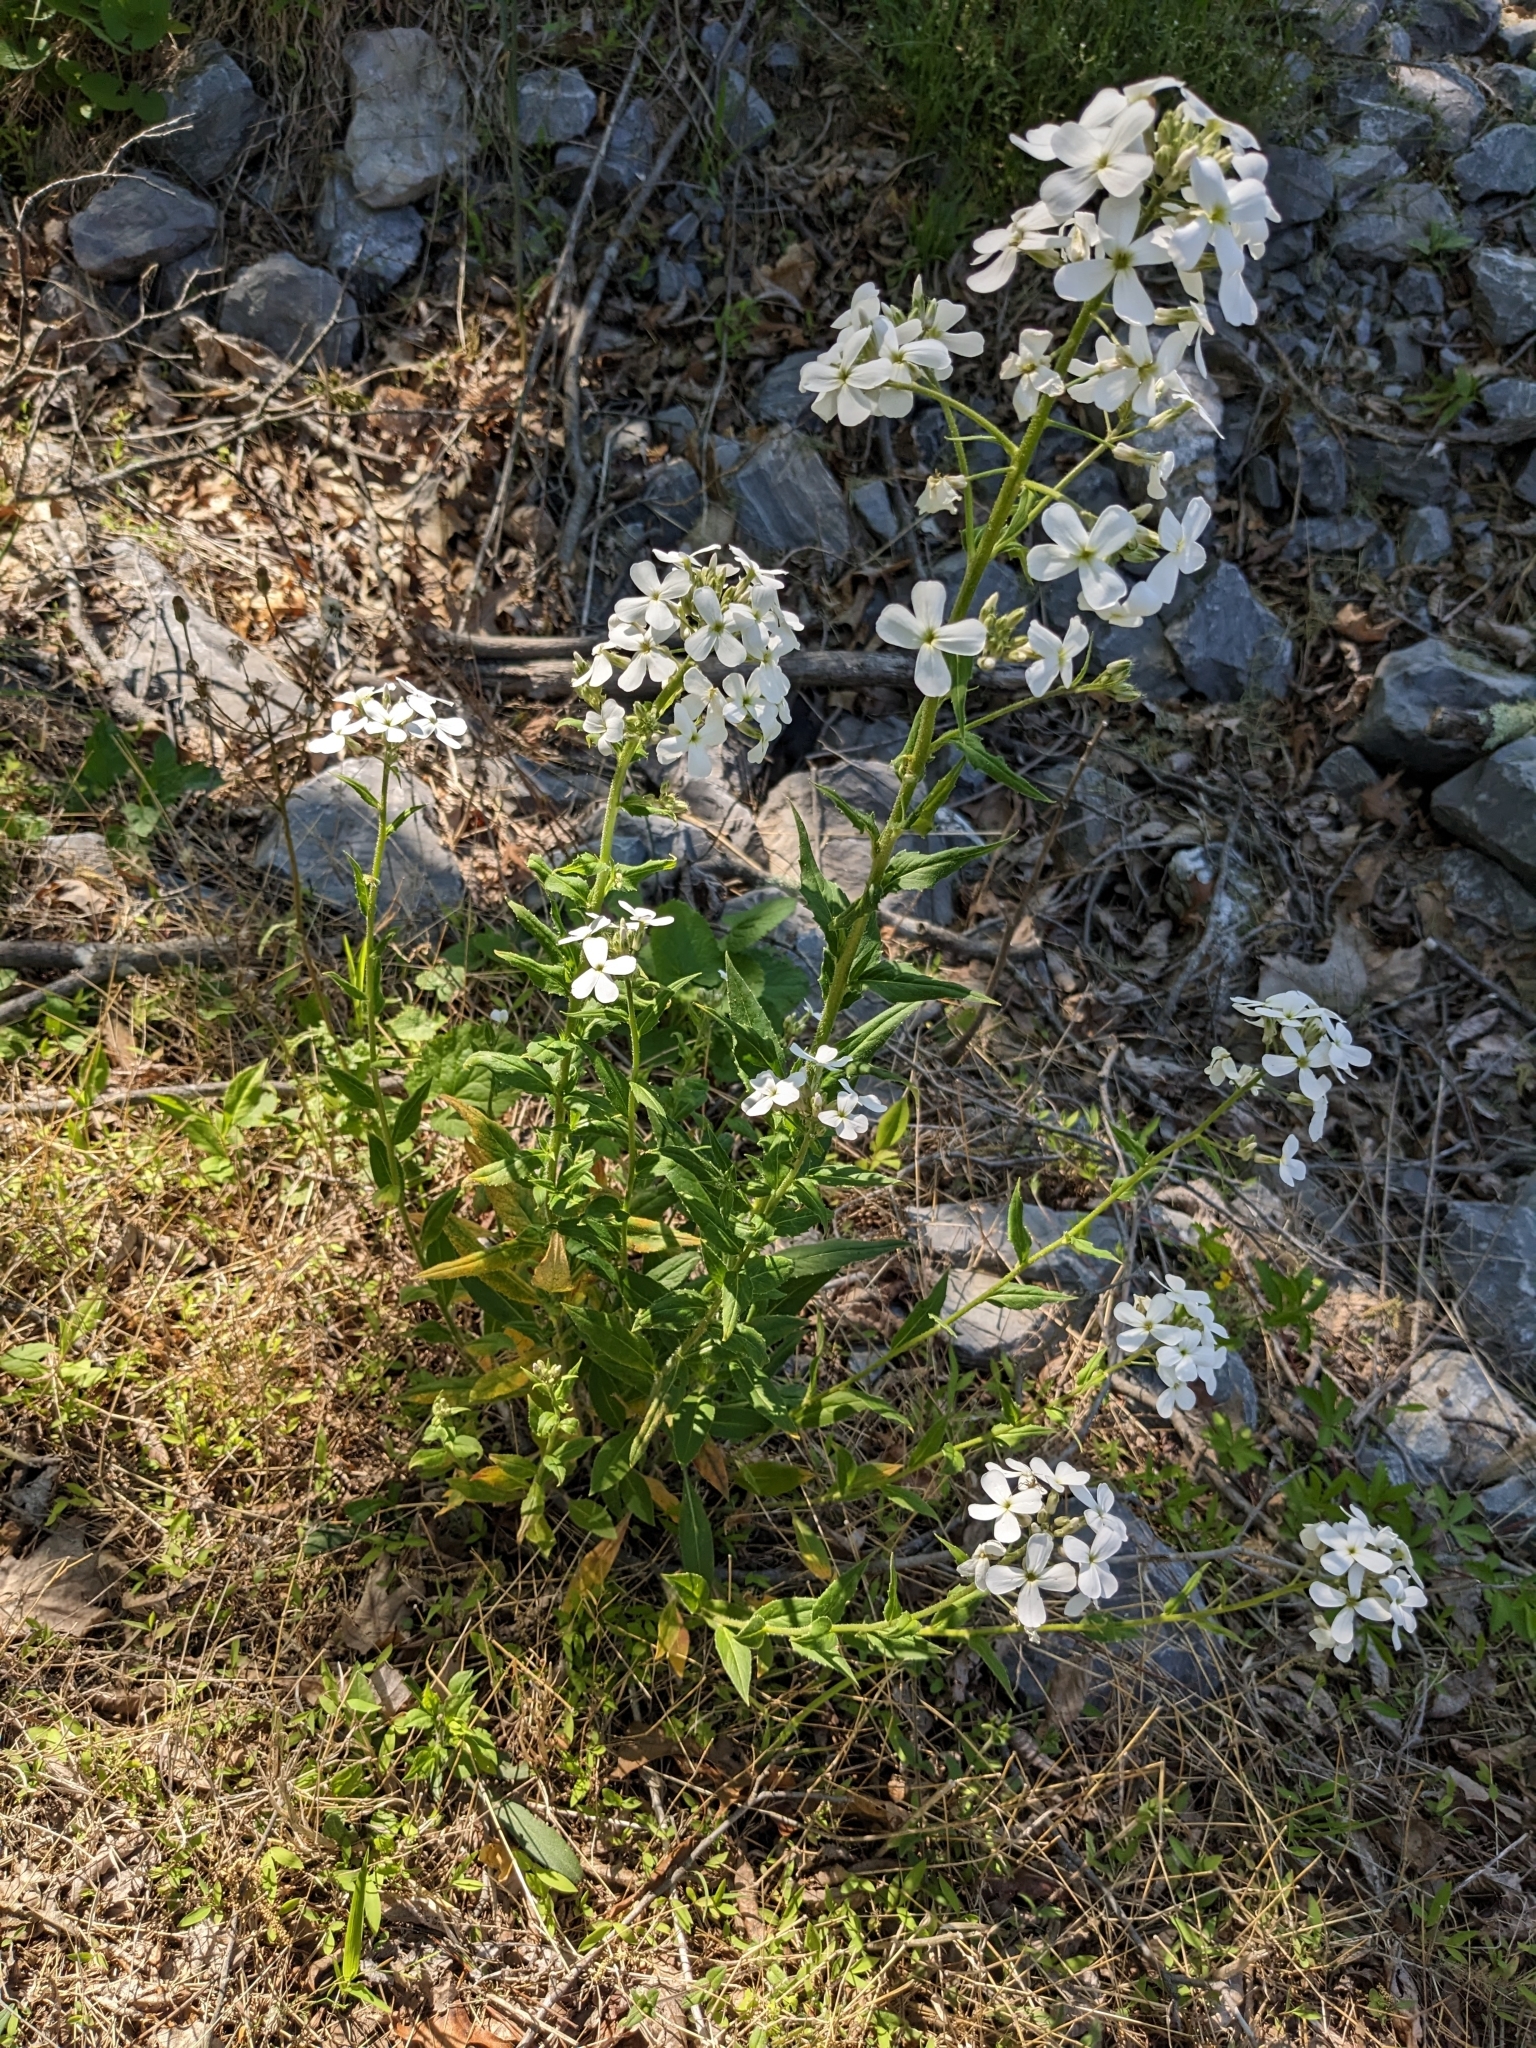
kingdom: Plantae
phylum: Tracheophyta
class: Magnoliopsida
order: Brassicales
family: Brassicaceae
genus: Hesperis
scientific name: Hesperis matronalis
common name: Dame's-violet
